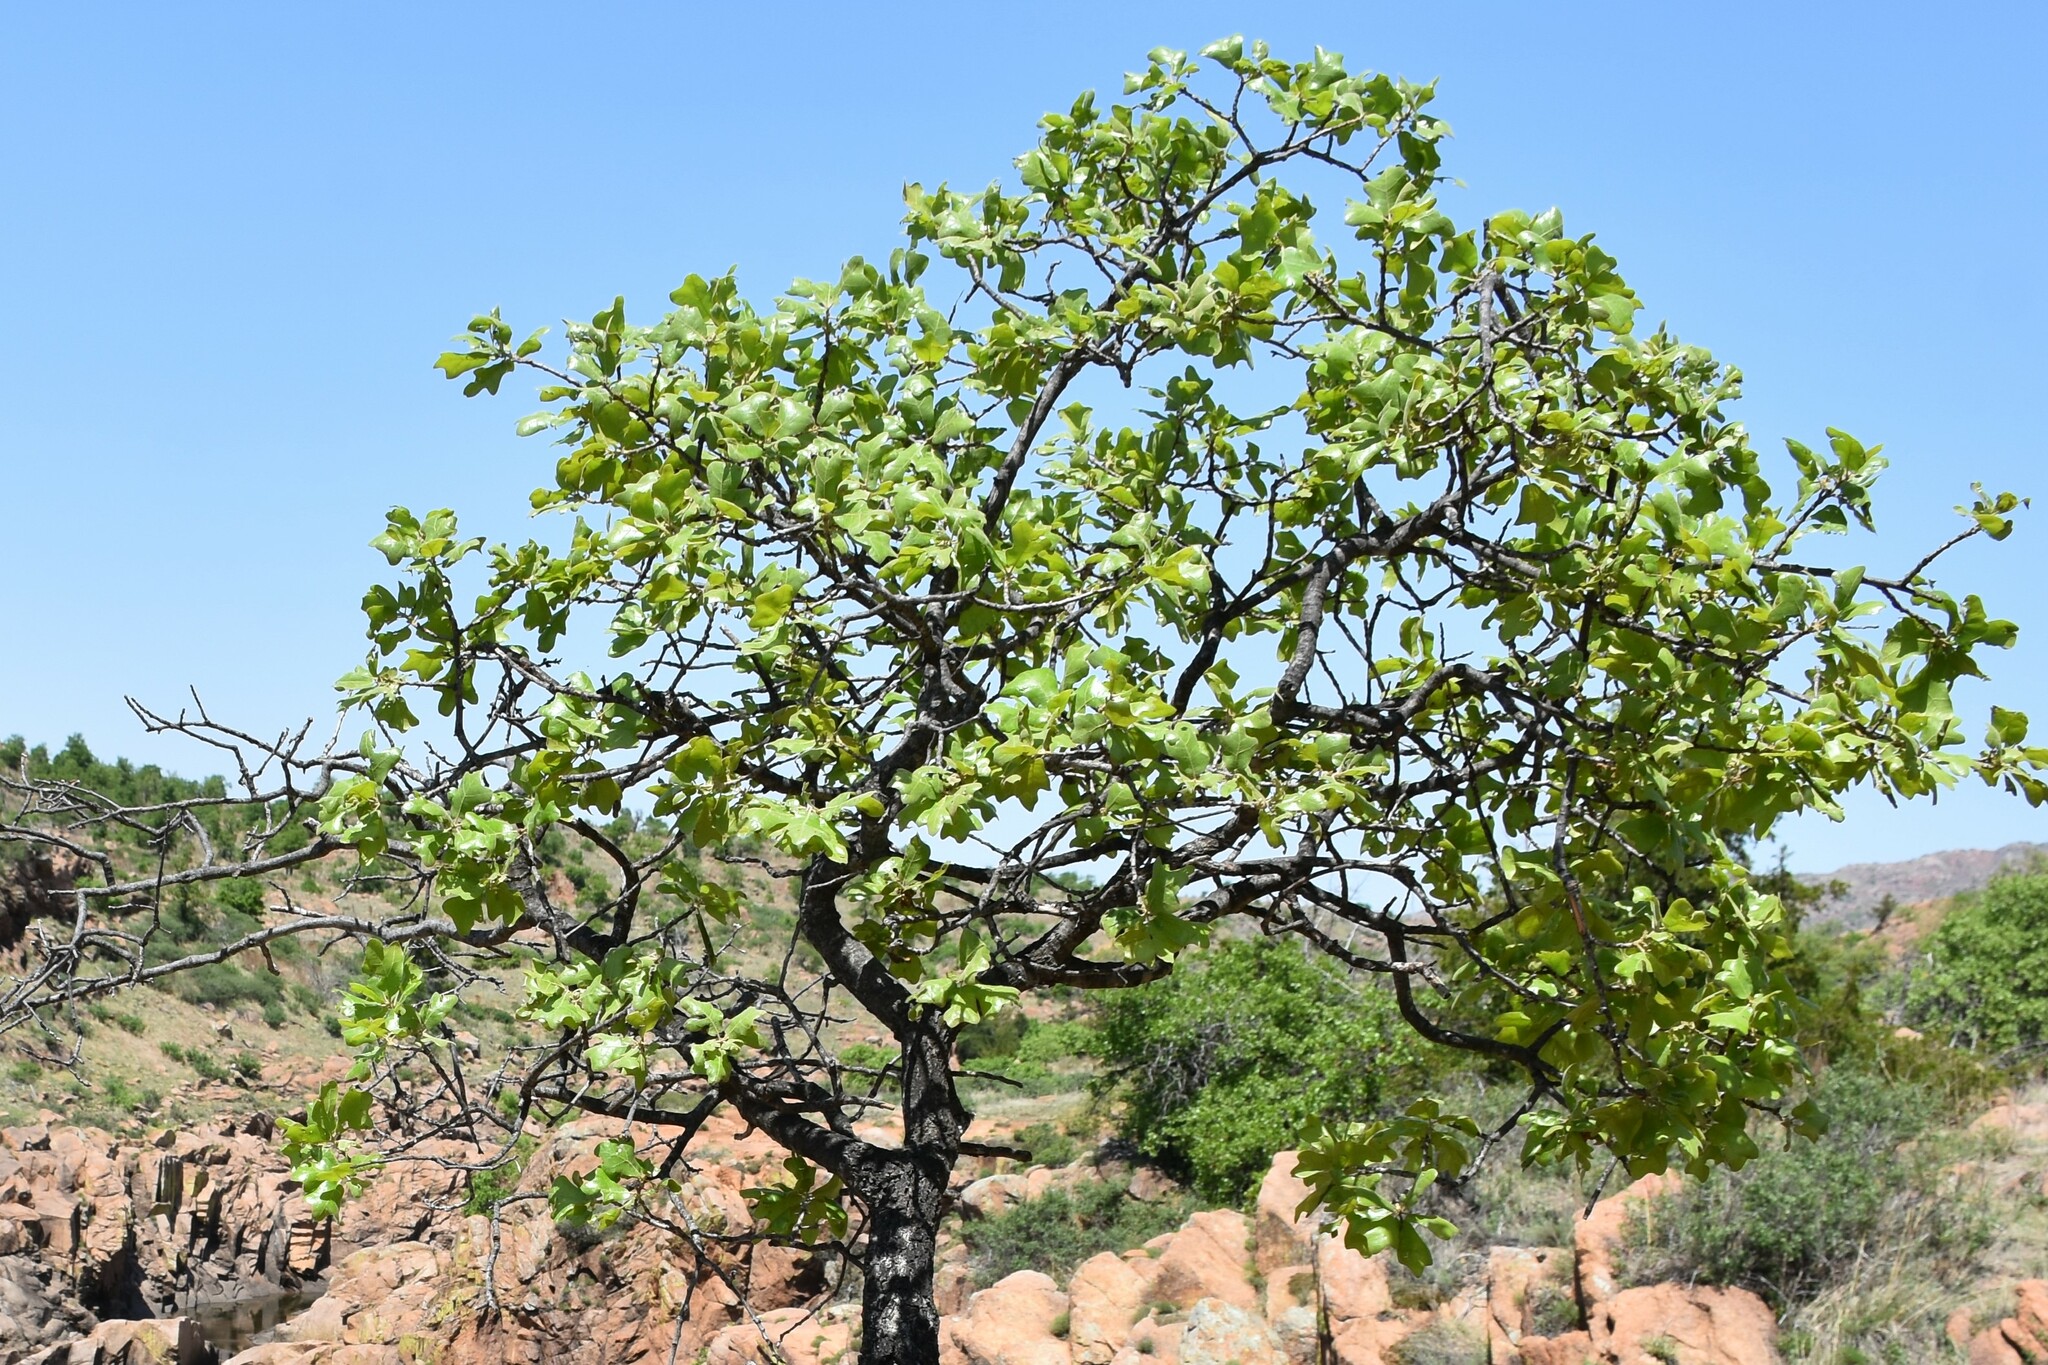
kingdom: Plantae
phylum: Tracheophyta
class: Magnoliopsida
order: Fagales
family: Fagaceae
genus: Quercus
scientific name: Quercus marilandica
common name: Blackjack oak
